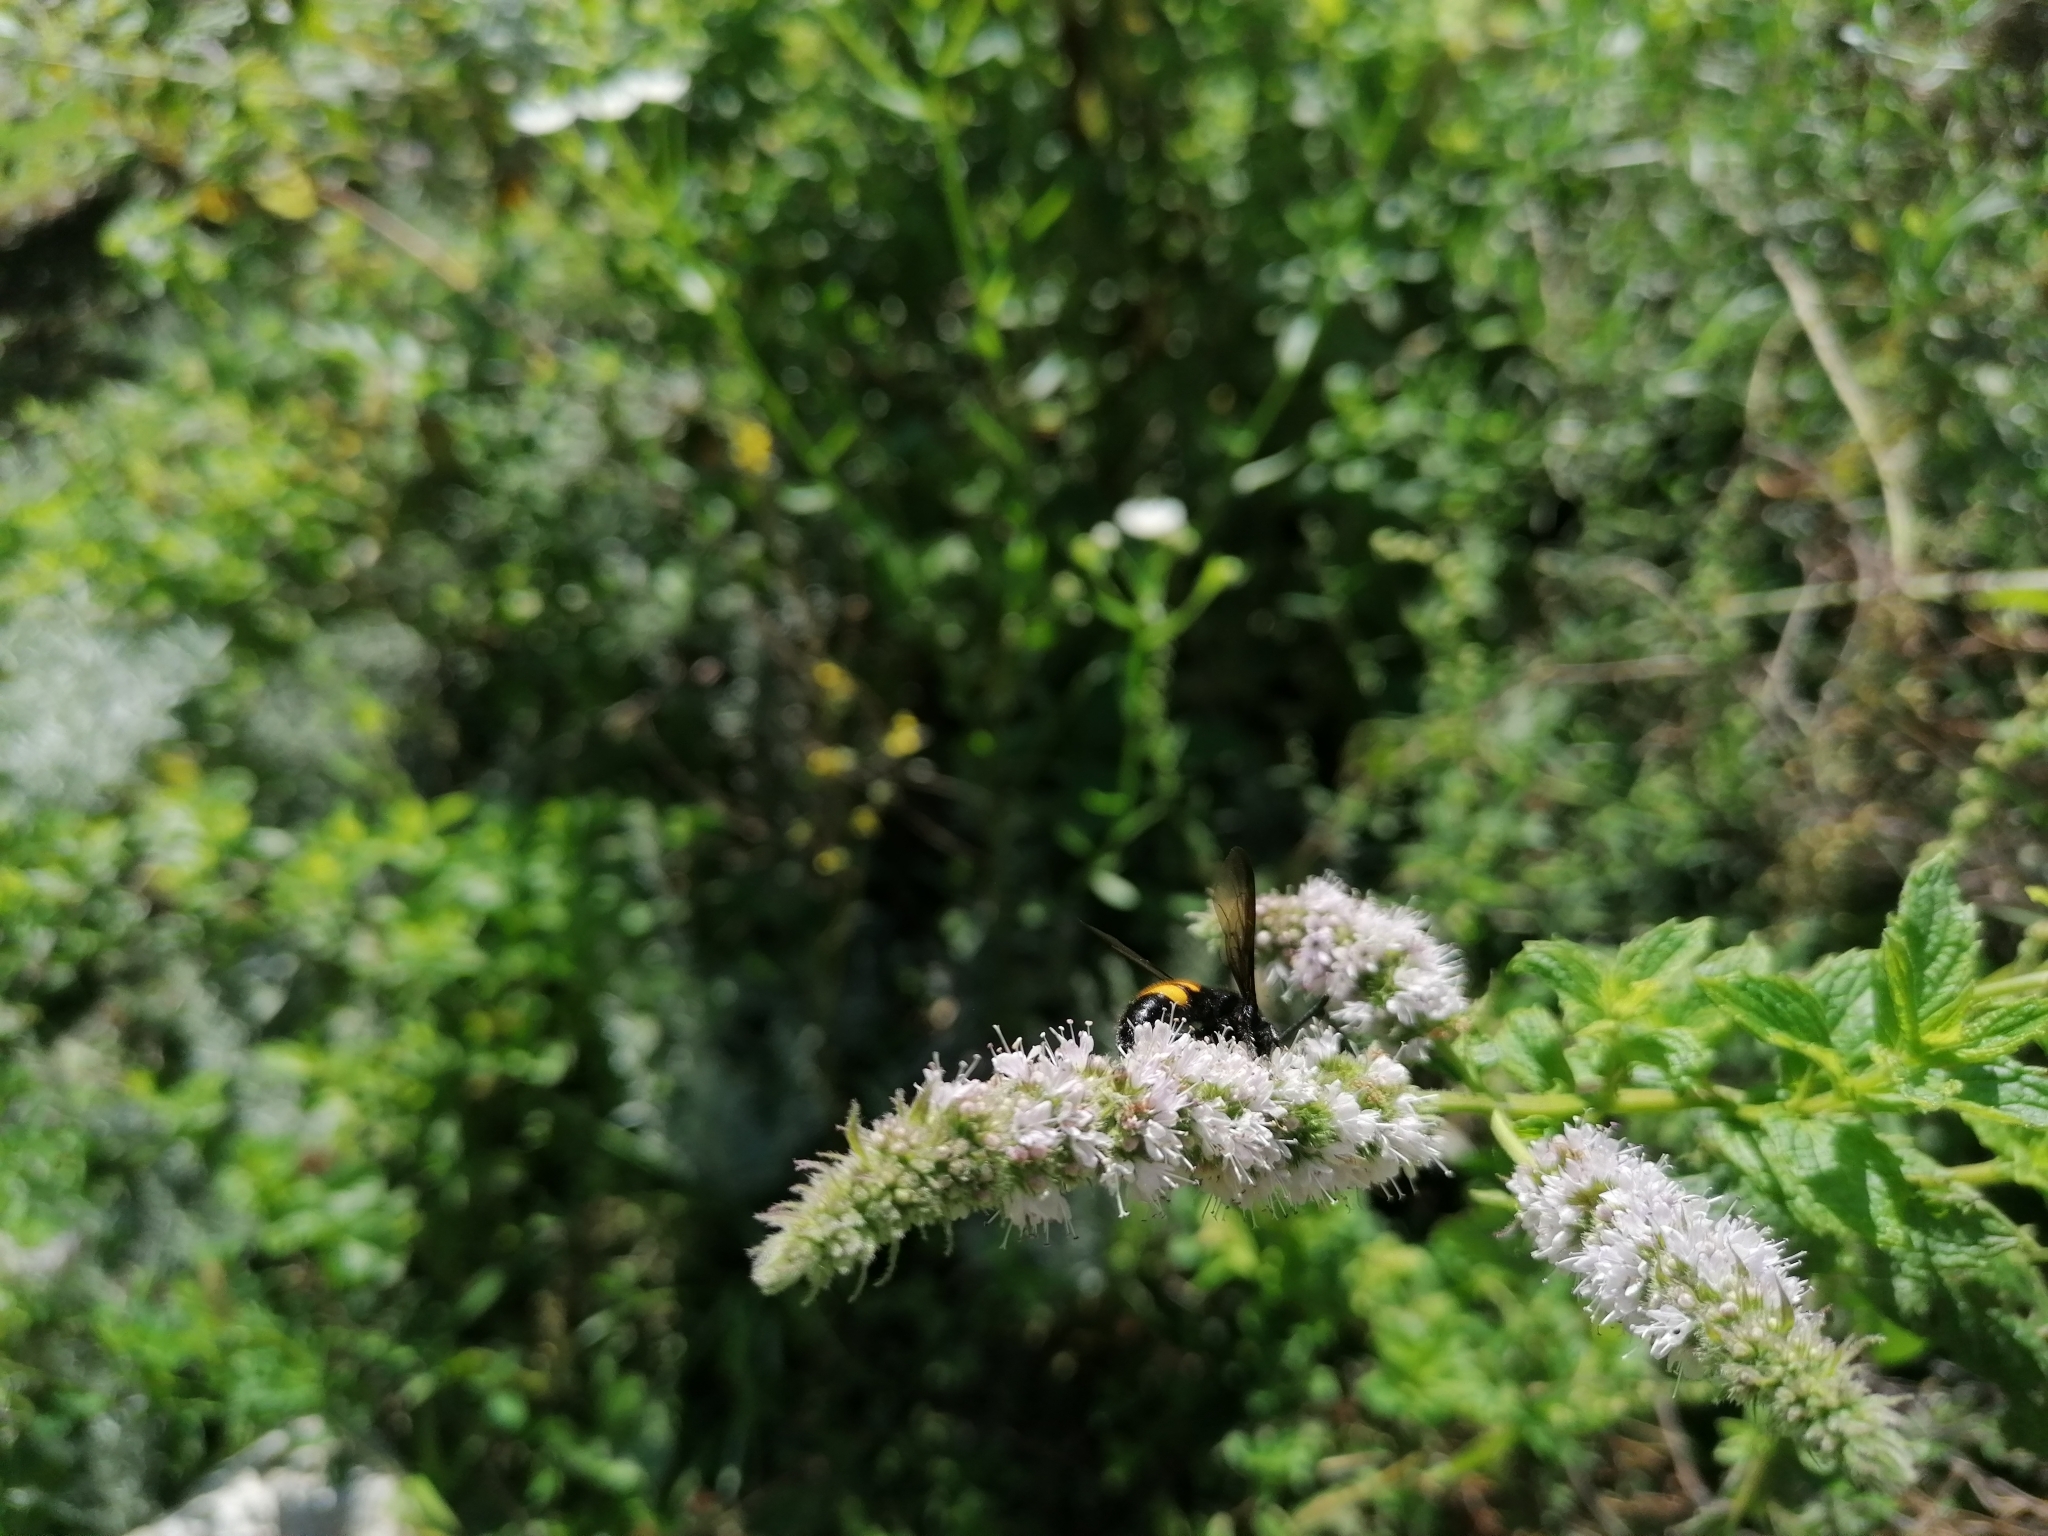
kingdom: Animalia
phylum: Arthropoda
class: Insecta
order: Hymenoptera
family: Scoliidae
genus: Scolia
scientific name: Scolia hirta
